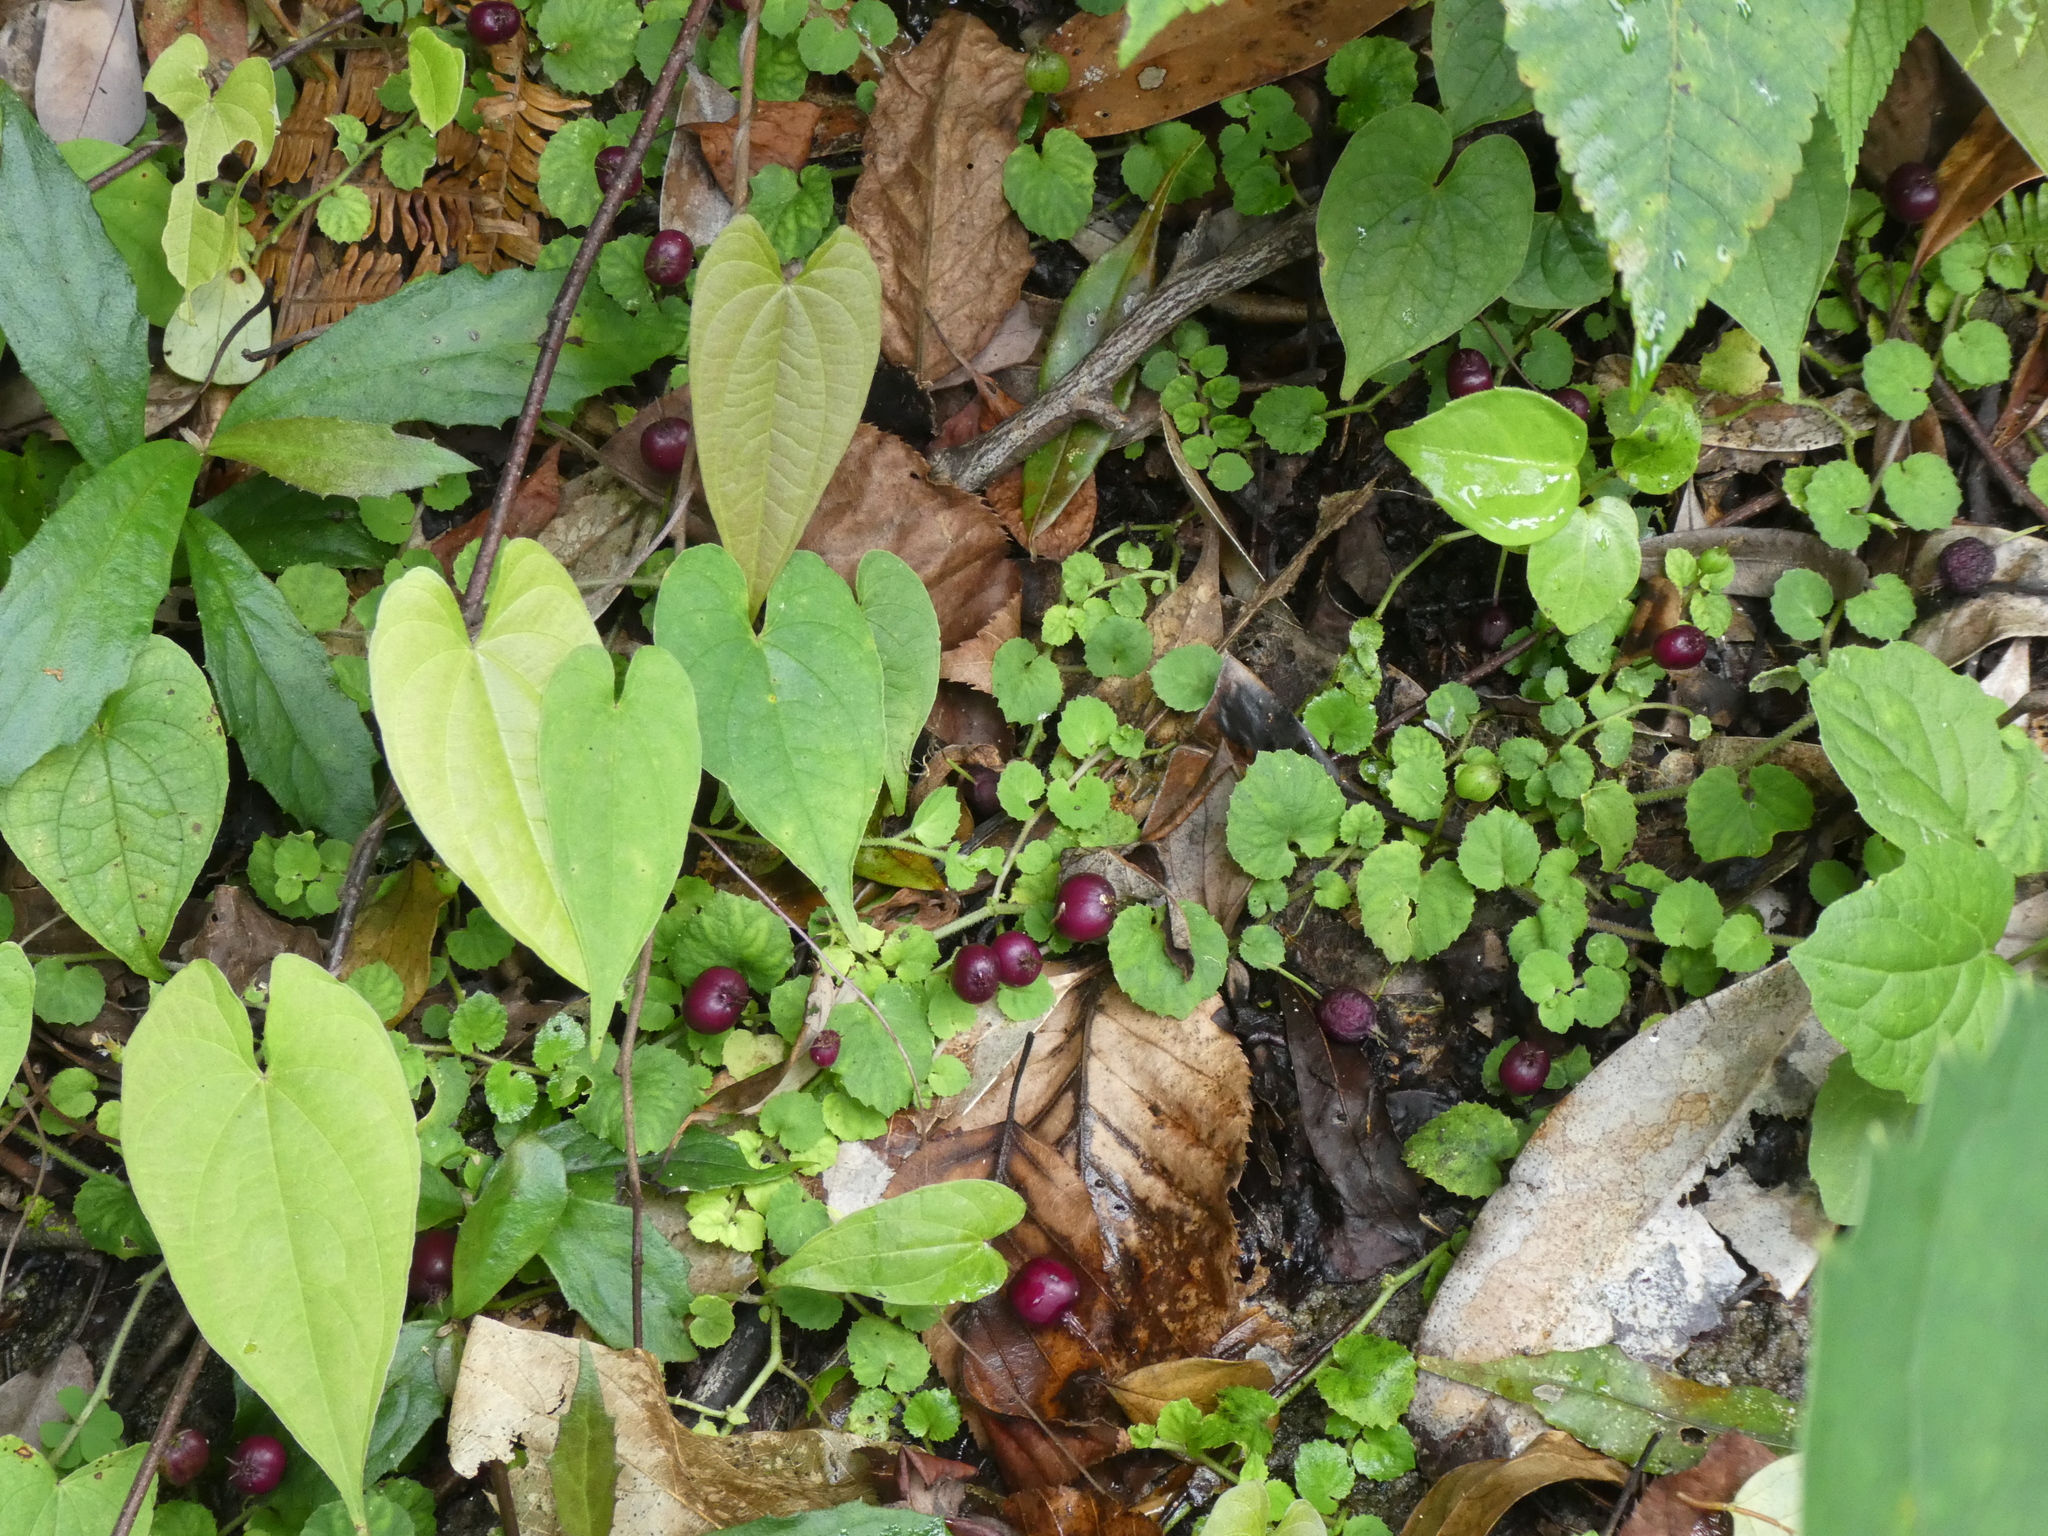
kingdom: Plantae
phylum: Tracheophyta
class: Magnoliopsida
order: Asterales
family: Campanulaceae
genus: Lobelia
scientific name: Lobelia nummularia
